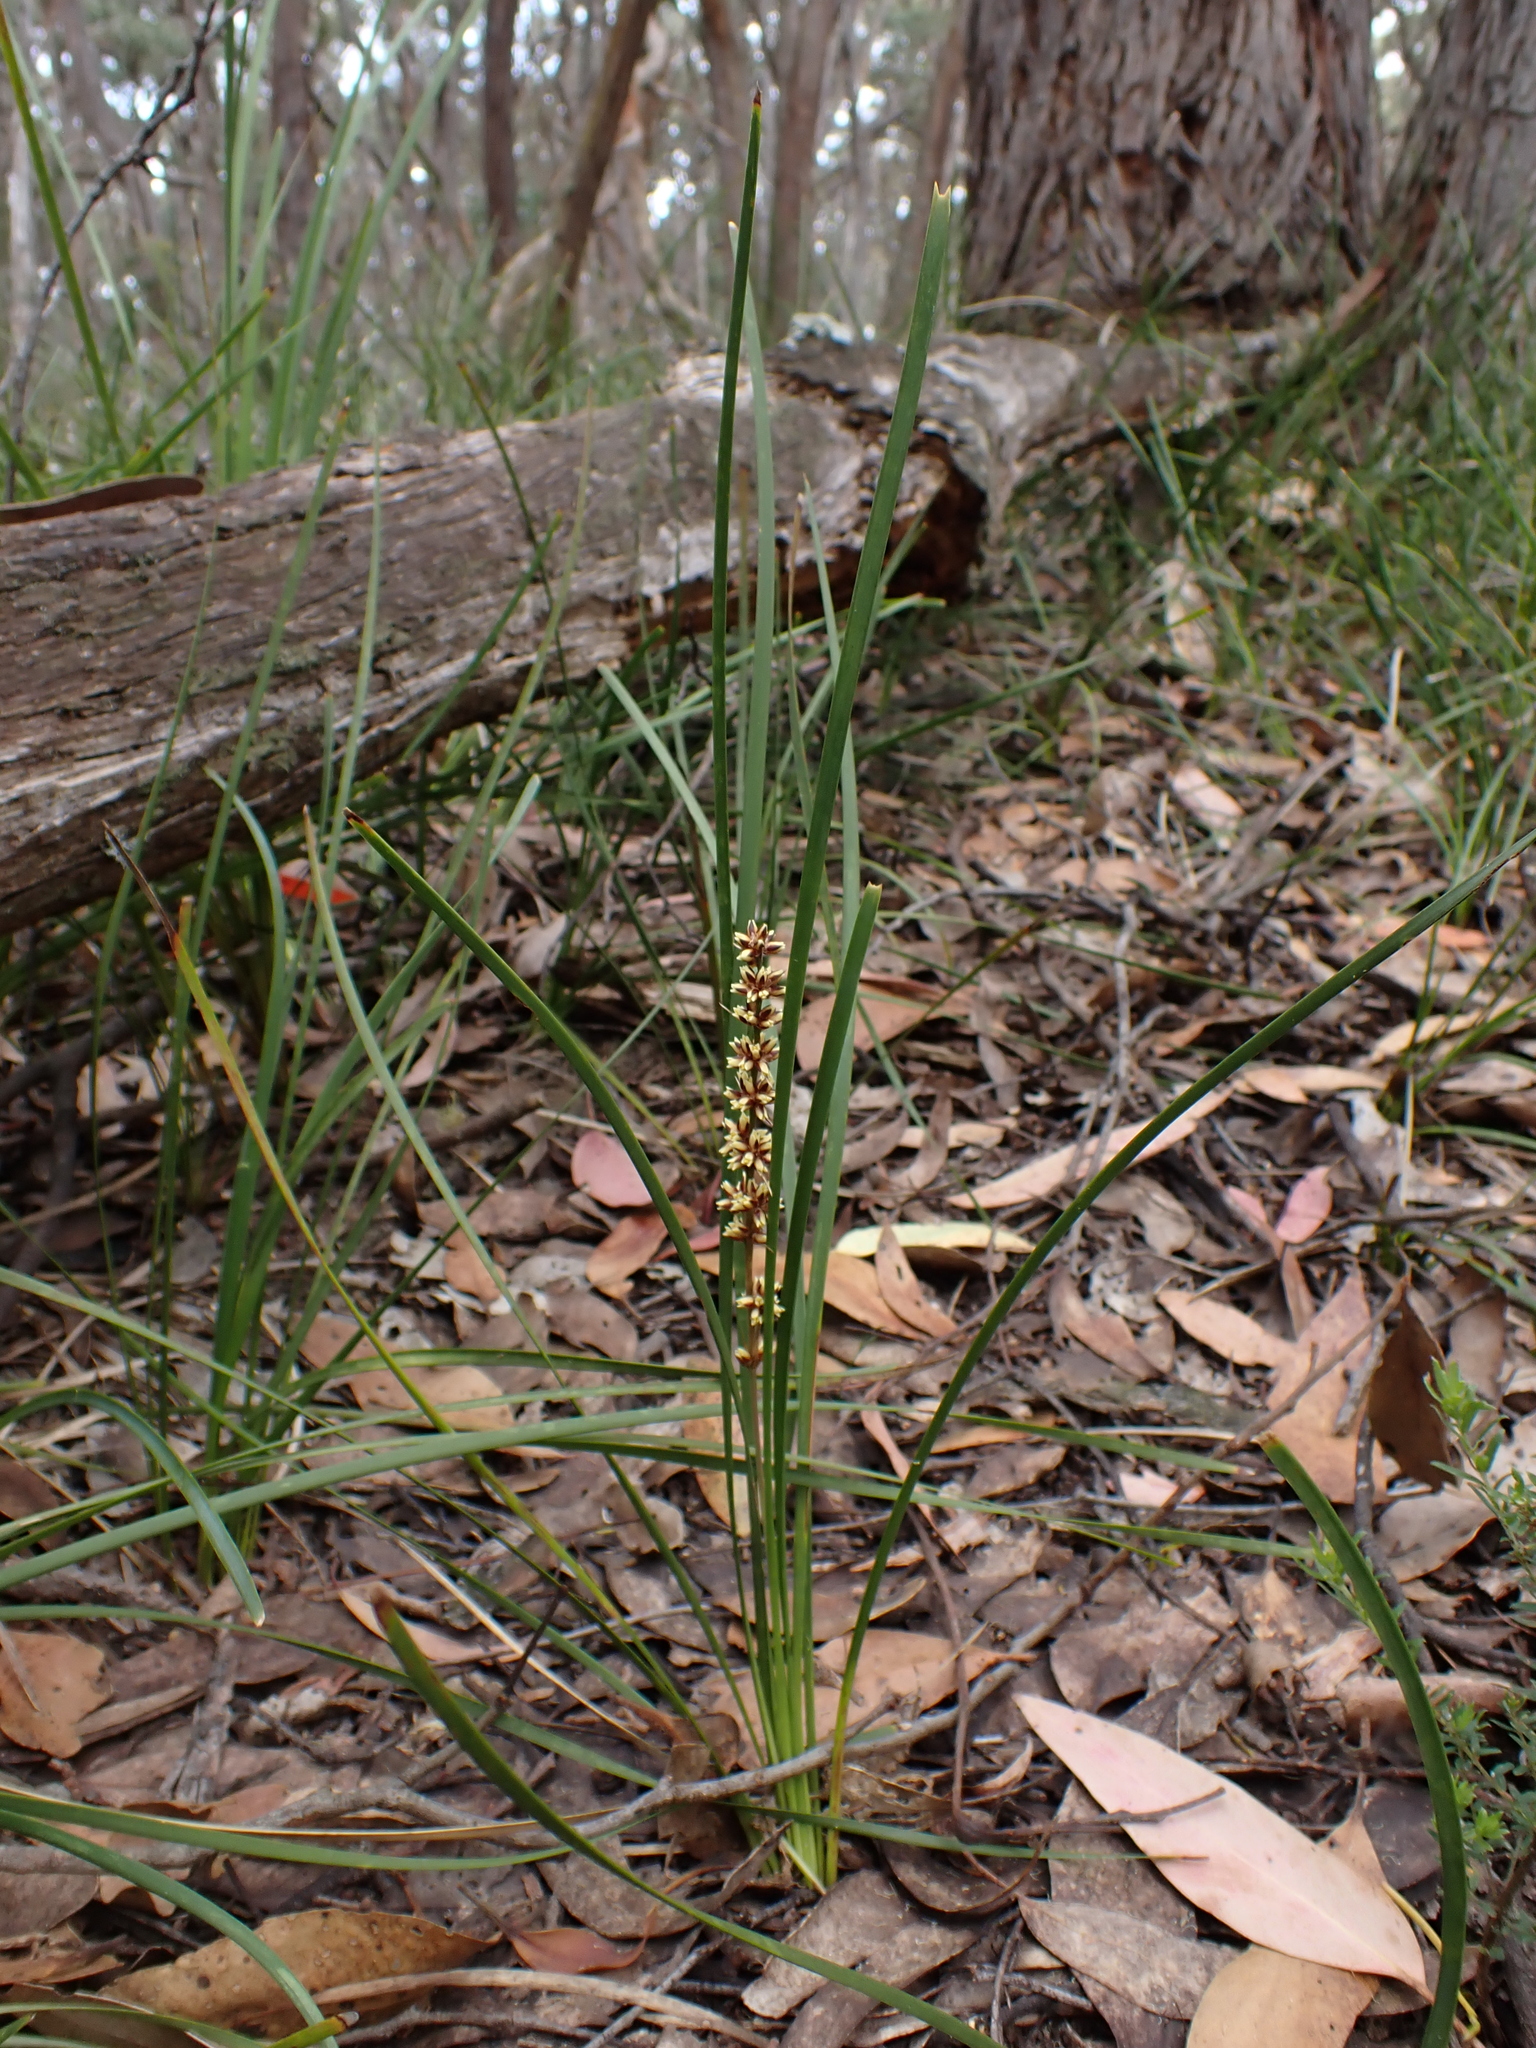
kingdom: Plantae
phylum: Tracheophyta
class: Liliopsida
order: Asparagales
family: Asparagaceae
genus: Lomandra
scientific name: Lomandra longifolia
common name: Longleaf mat-rush
